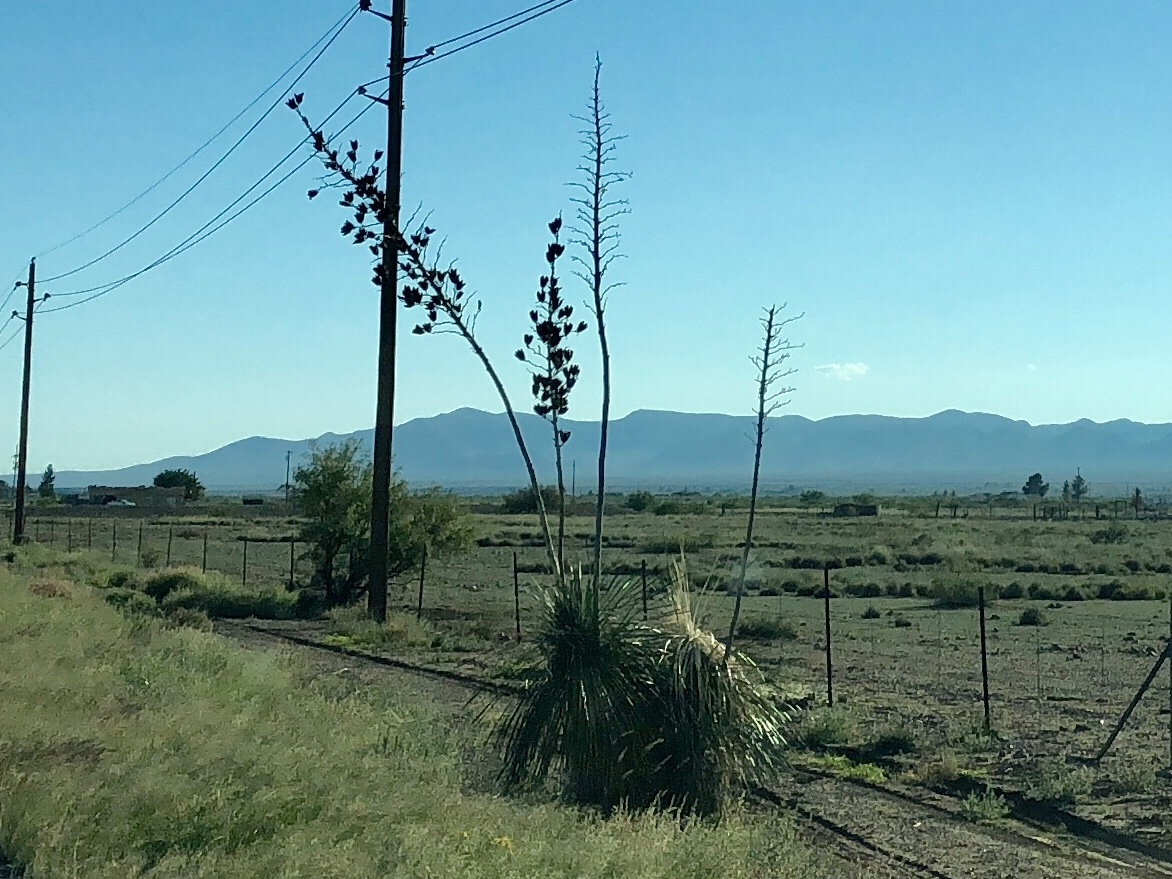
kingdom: Plantae
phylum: Tracheophyta
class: Liliopsida
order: Asparagales
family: Asparagaceae
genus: Yucca
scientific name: Yucca elata
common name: Palmella
